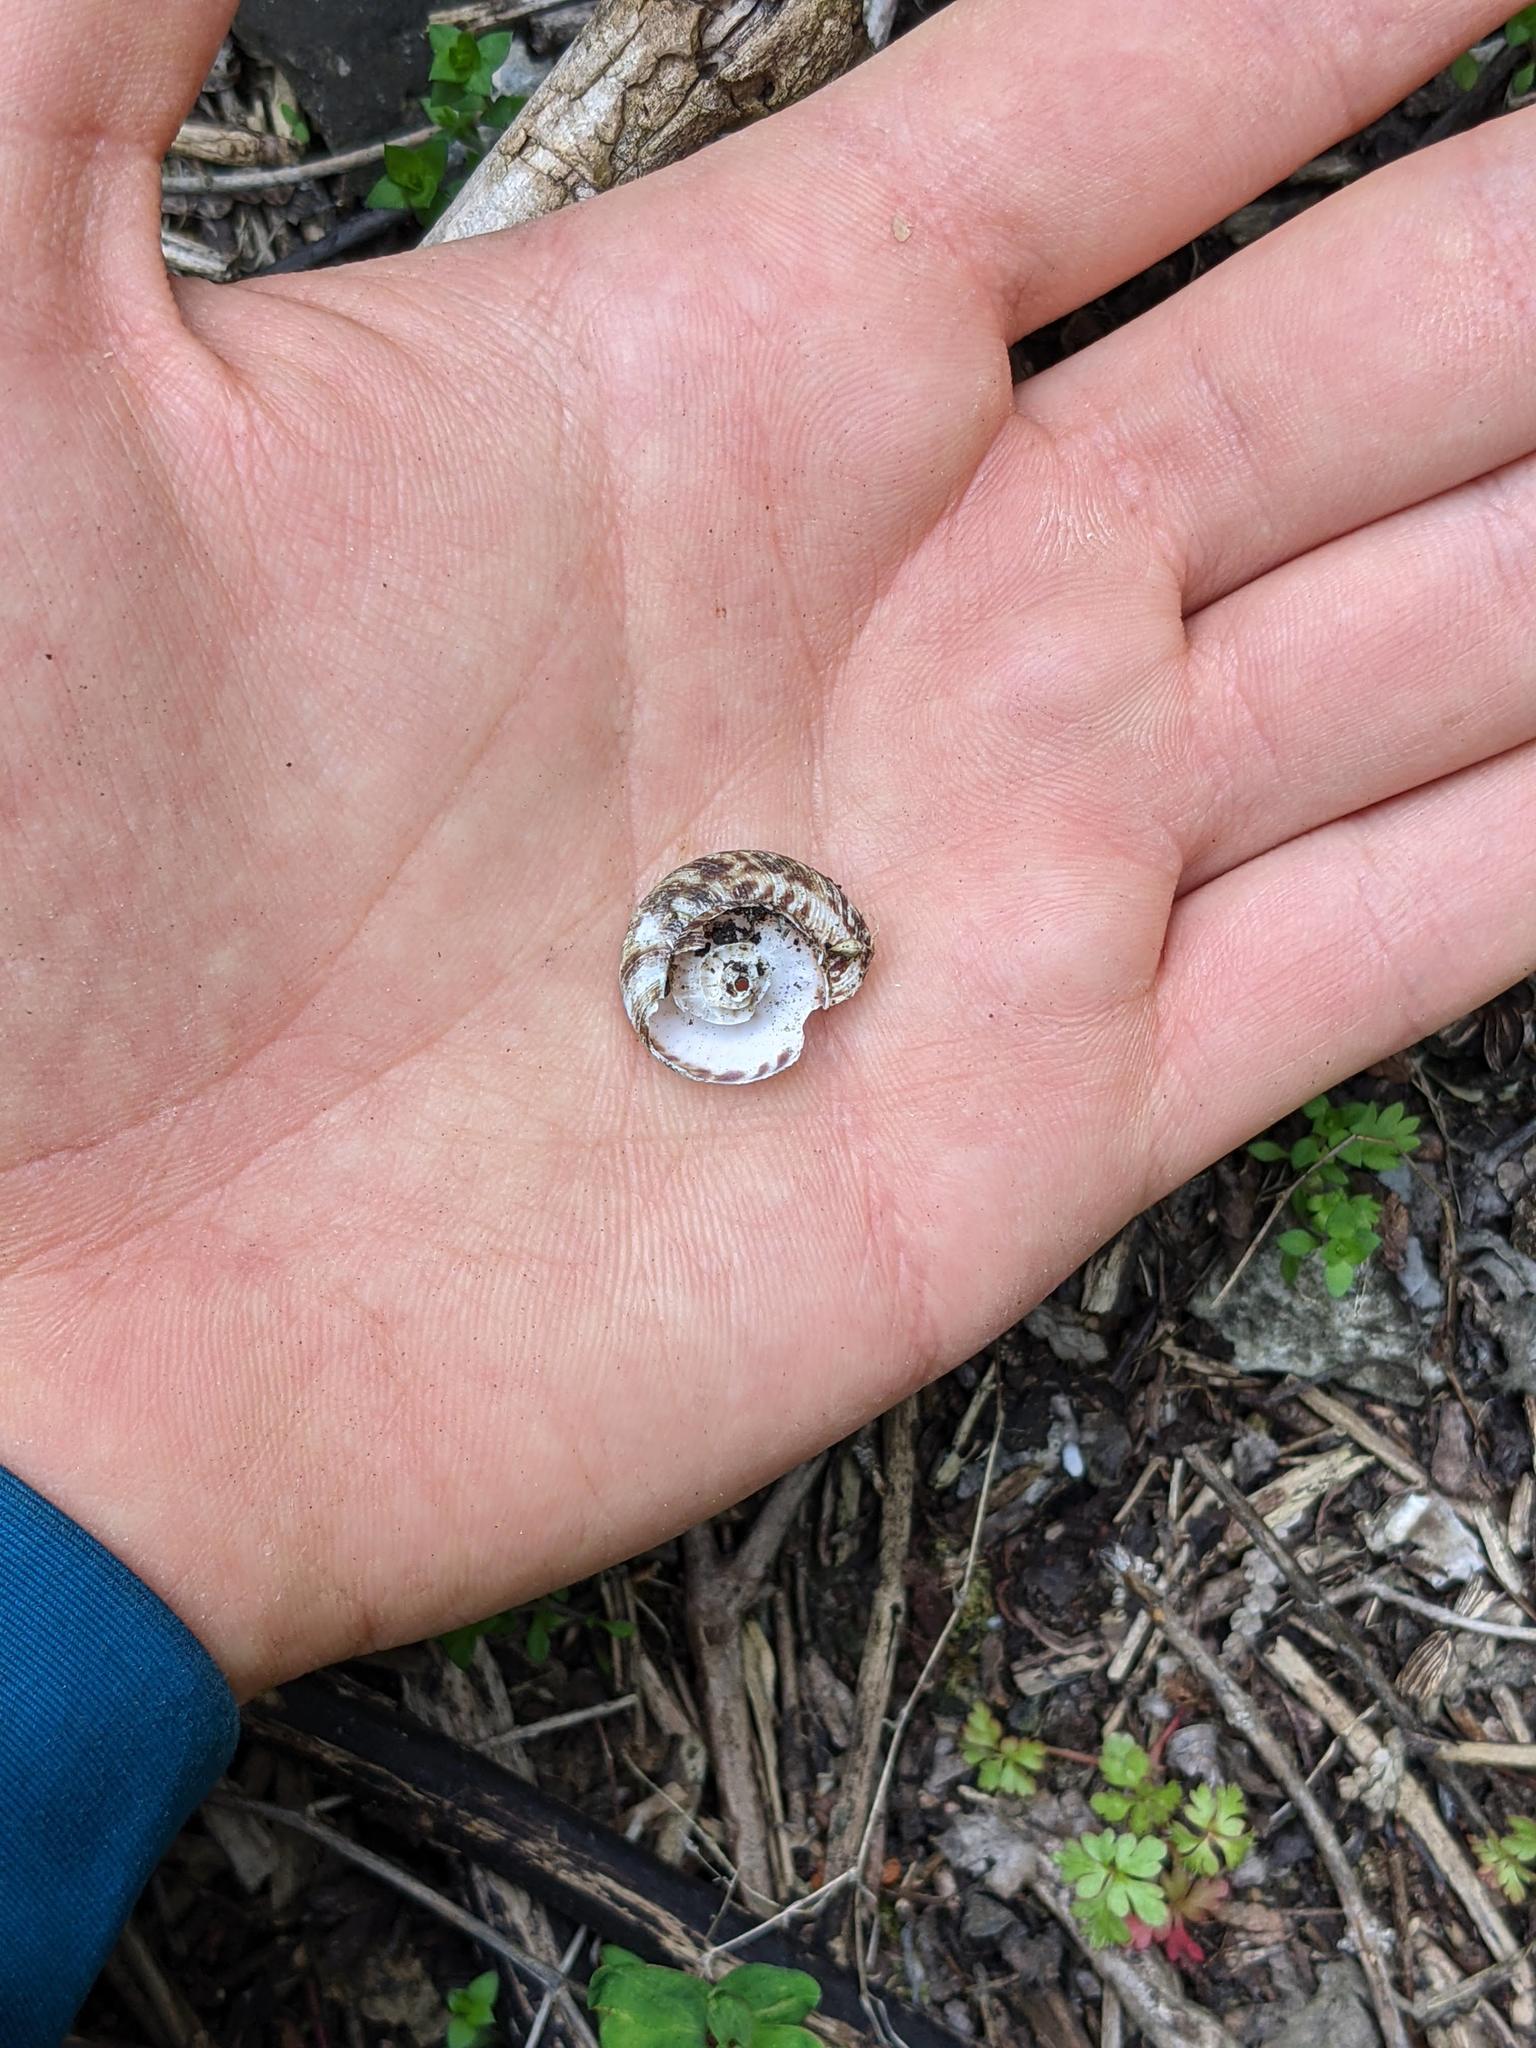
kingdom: Animalia
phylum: Mollusca
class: Gastropoda
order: Stylommatophora
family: Discidae
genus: Anguispira
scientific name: Anguispira alternata
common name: Flamed tigersnail
